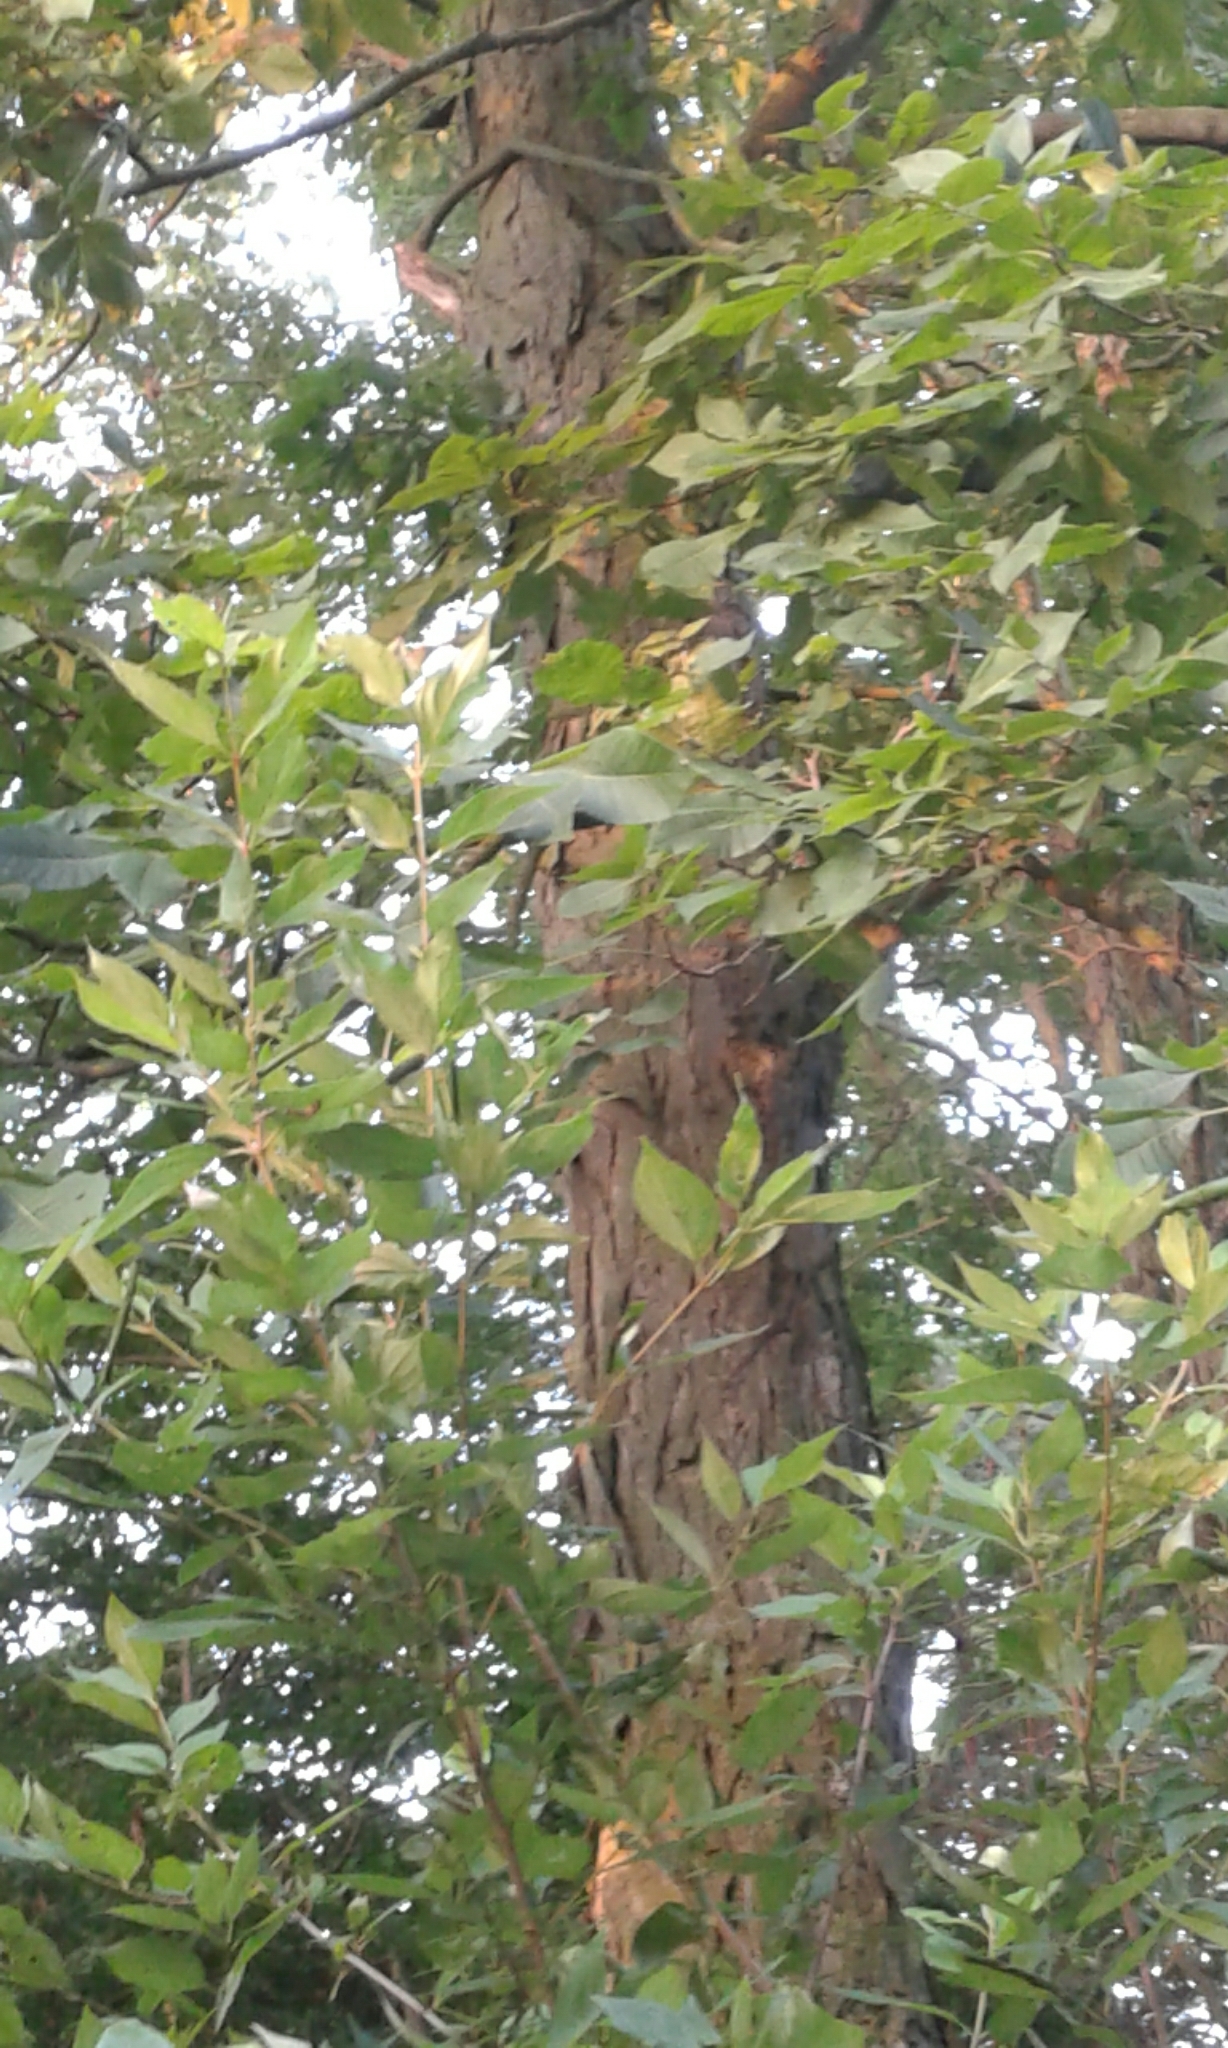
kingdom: Plantae
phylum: Tracheophyta
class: Magnoliopsida
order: Fagales
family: Juglandaceae
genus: Carya
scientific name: Carya ovata
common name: Shagbark hickory
